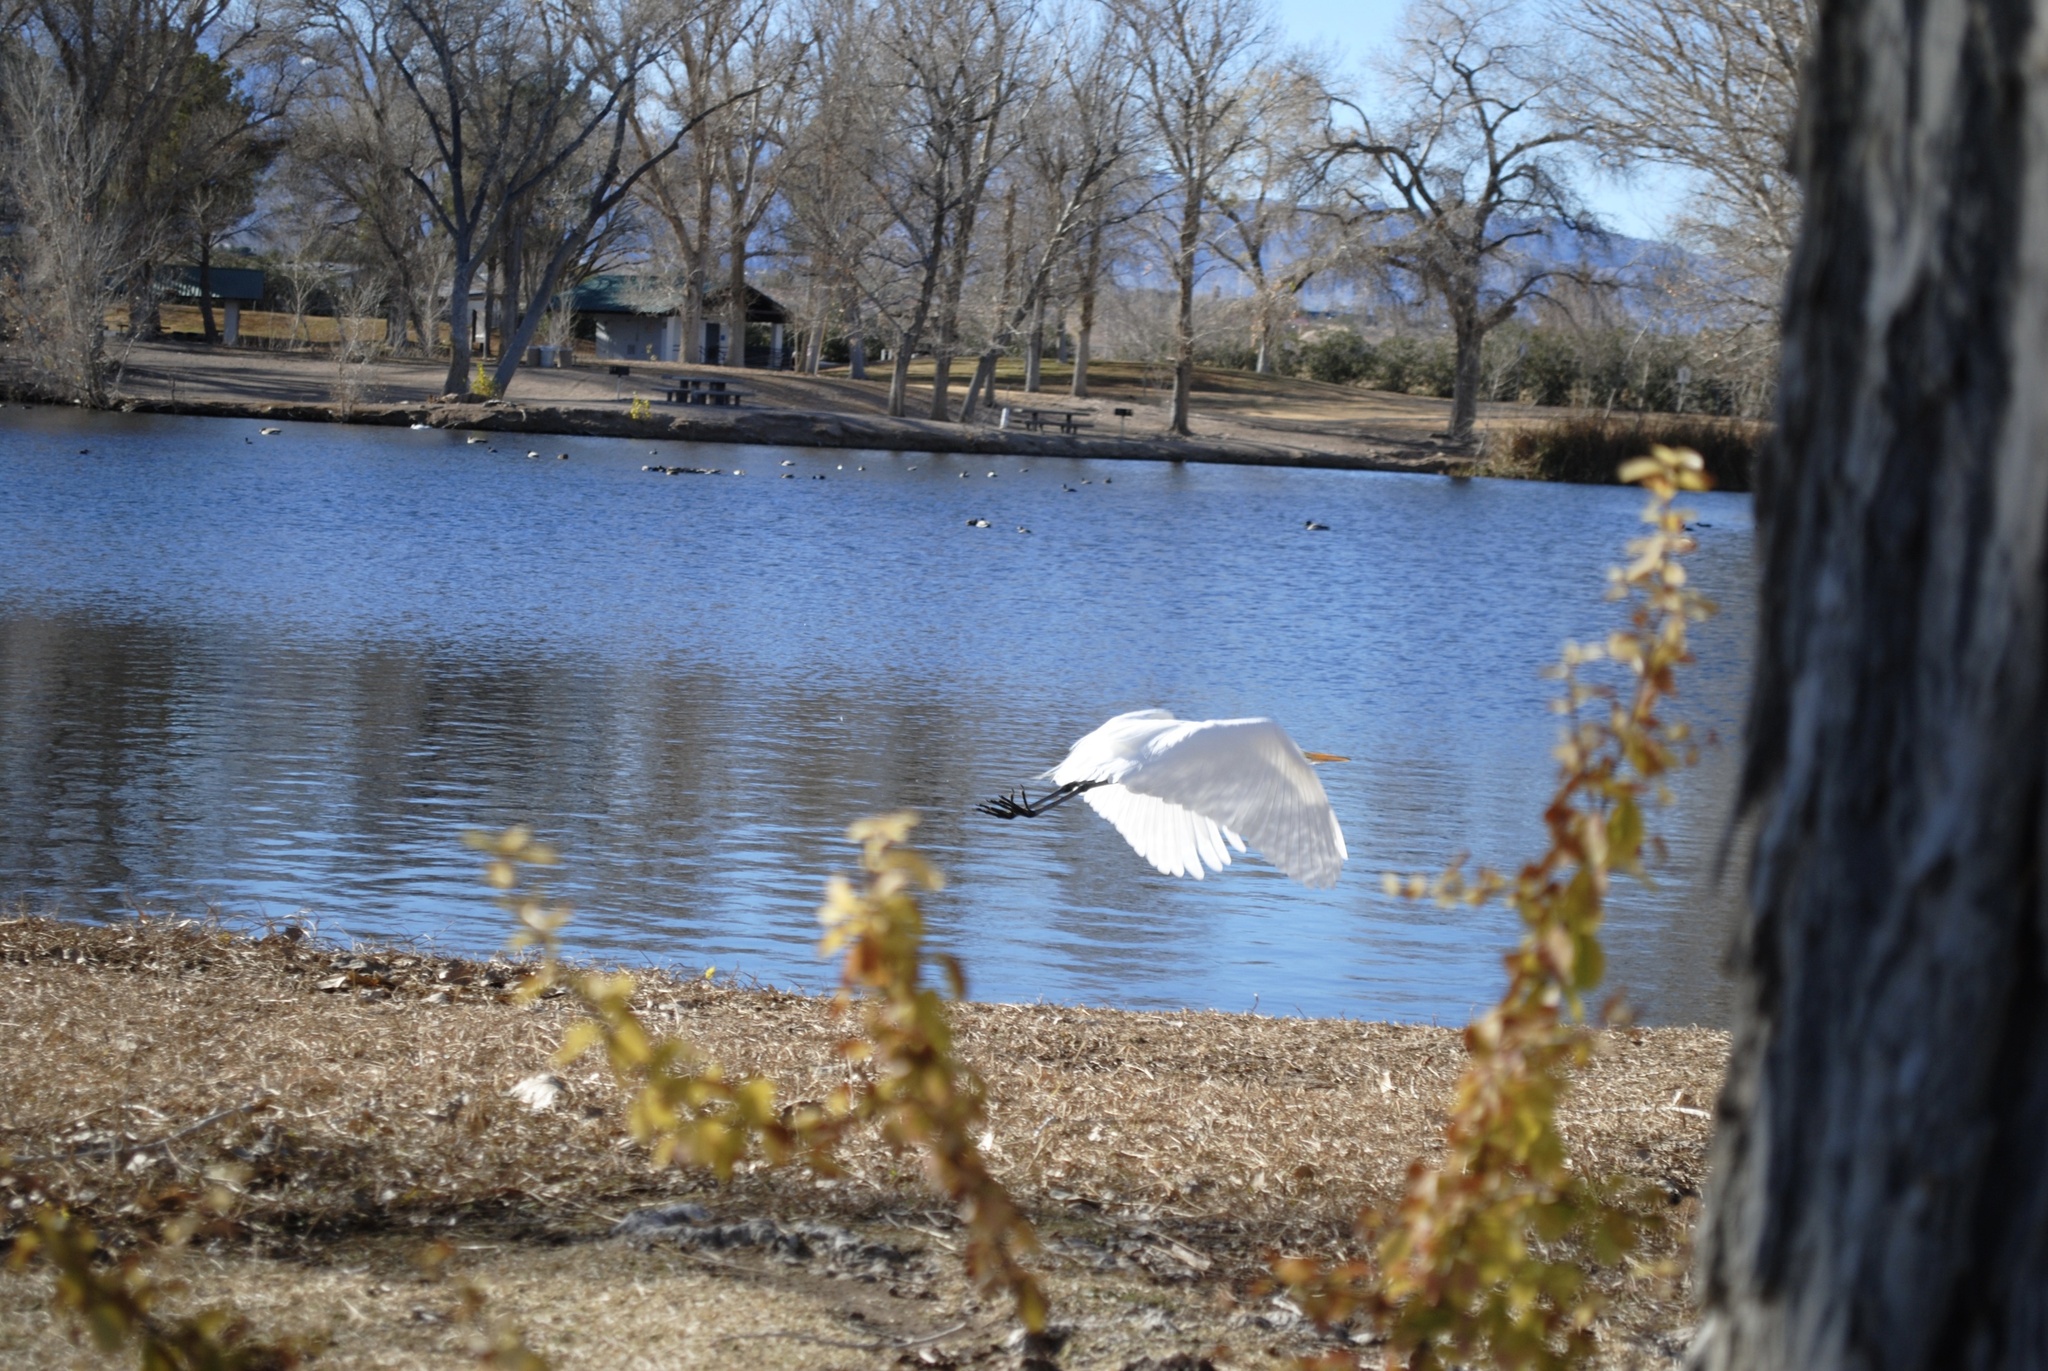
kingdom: Animalia
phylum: Chordata
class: Aves
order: Pelecaniformes
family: Ardeidae
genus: Ardea
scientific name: Ardea alba
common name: Great egret
